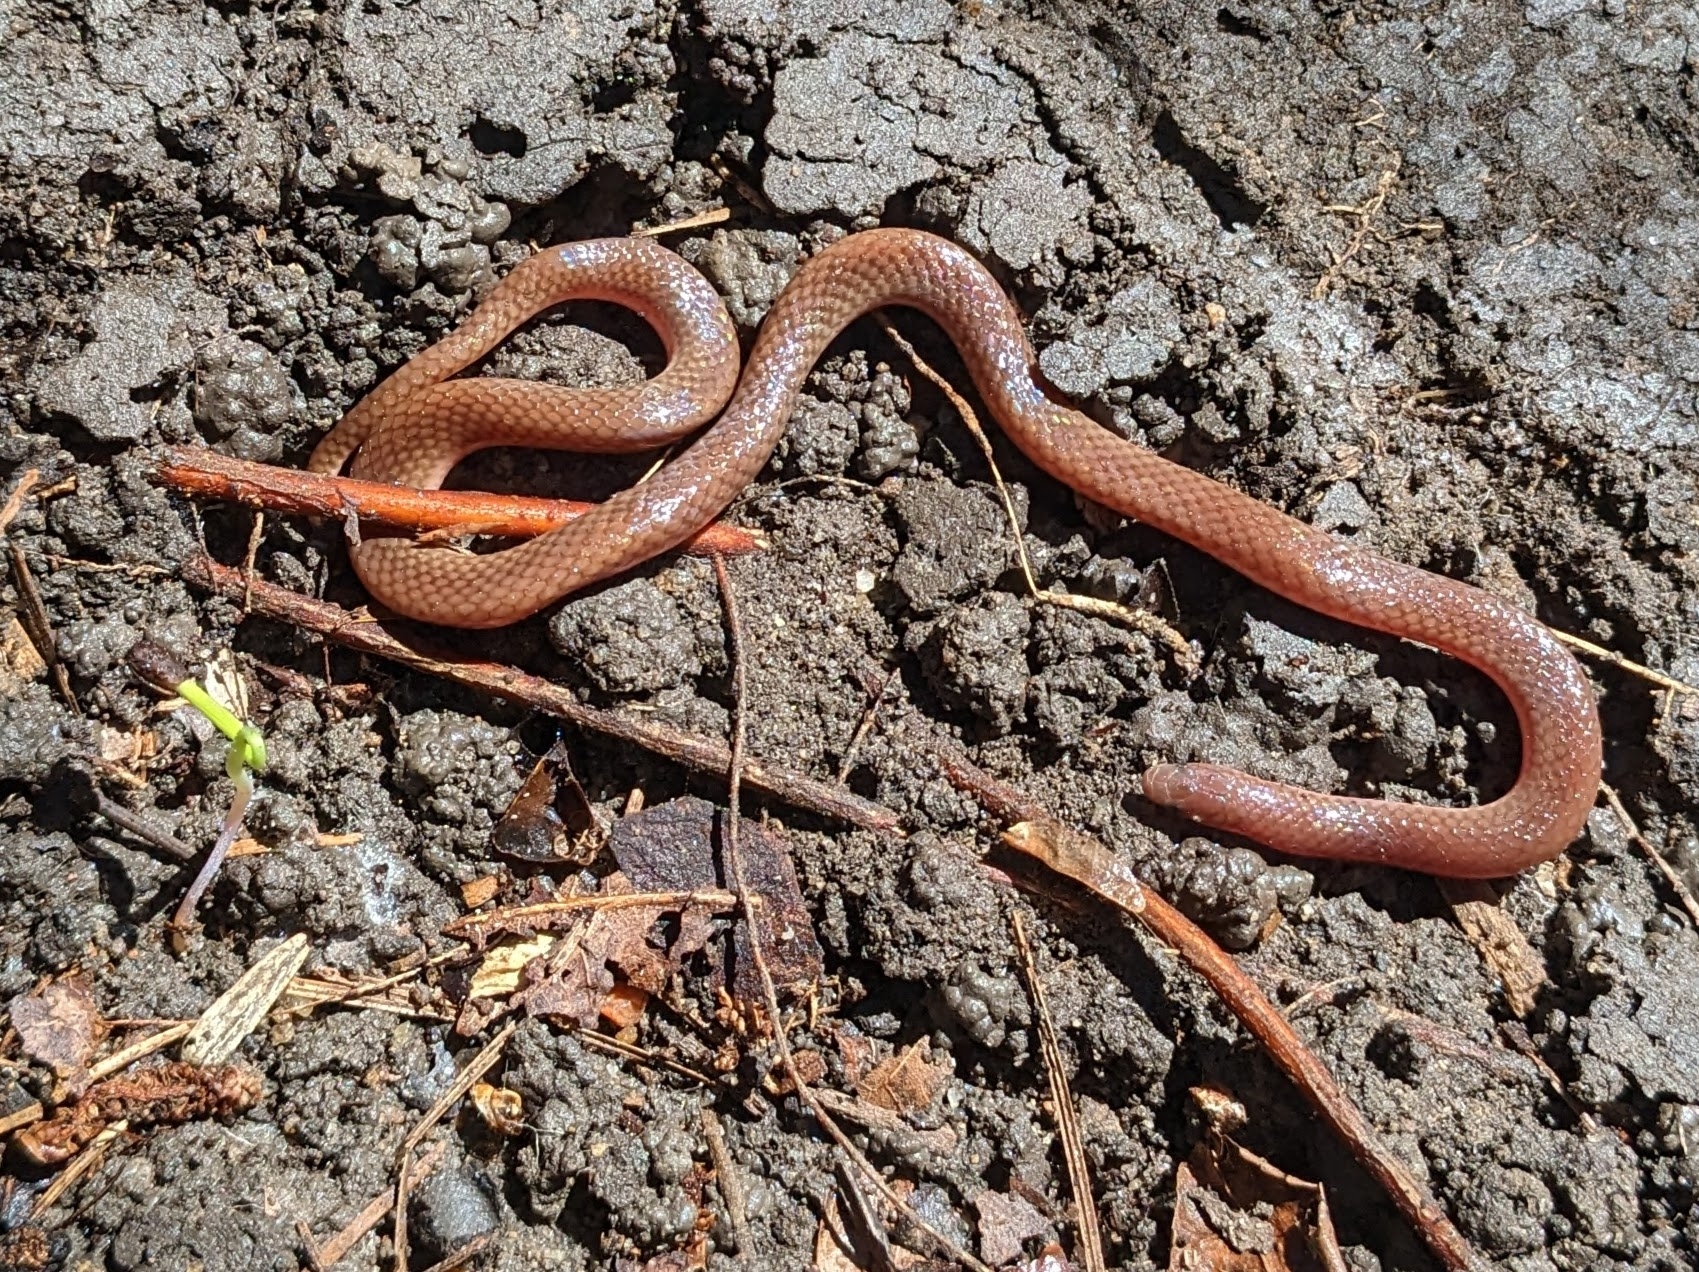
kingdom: Animalia
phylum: Chordata
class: Squamata
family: Colubridae
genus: Carphophis
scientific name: Carphophis amoenus
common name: Eastern worm snake
